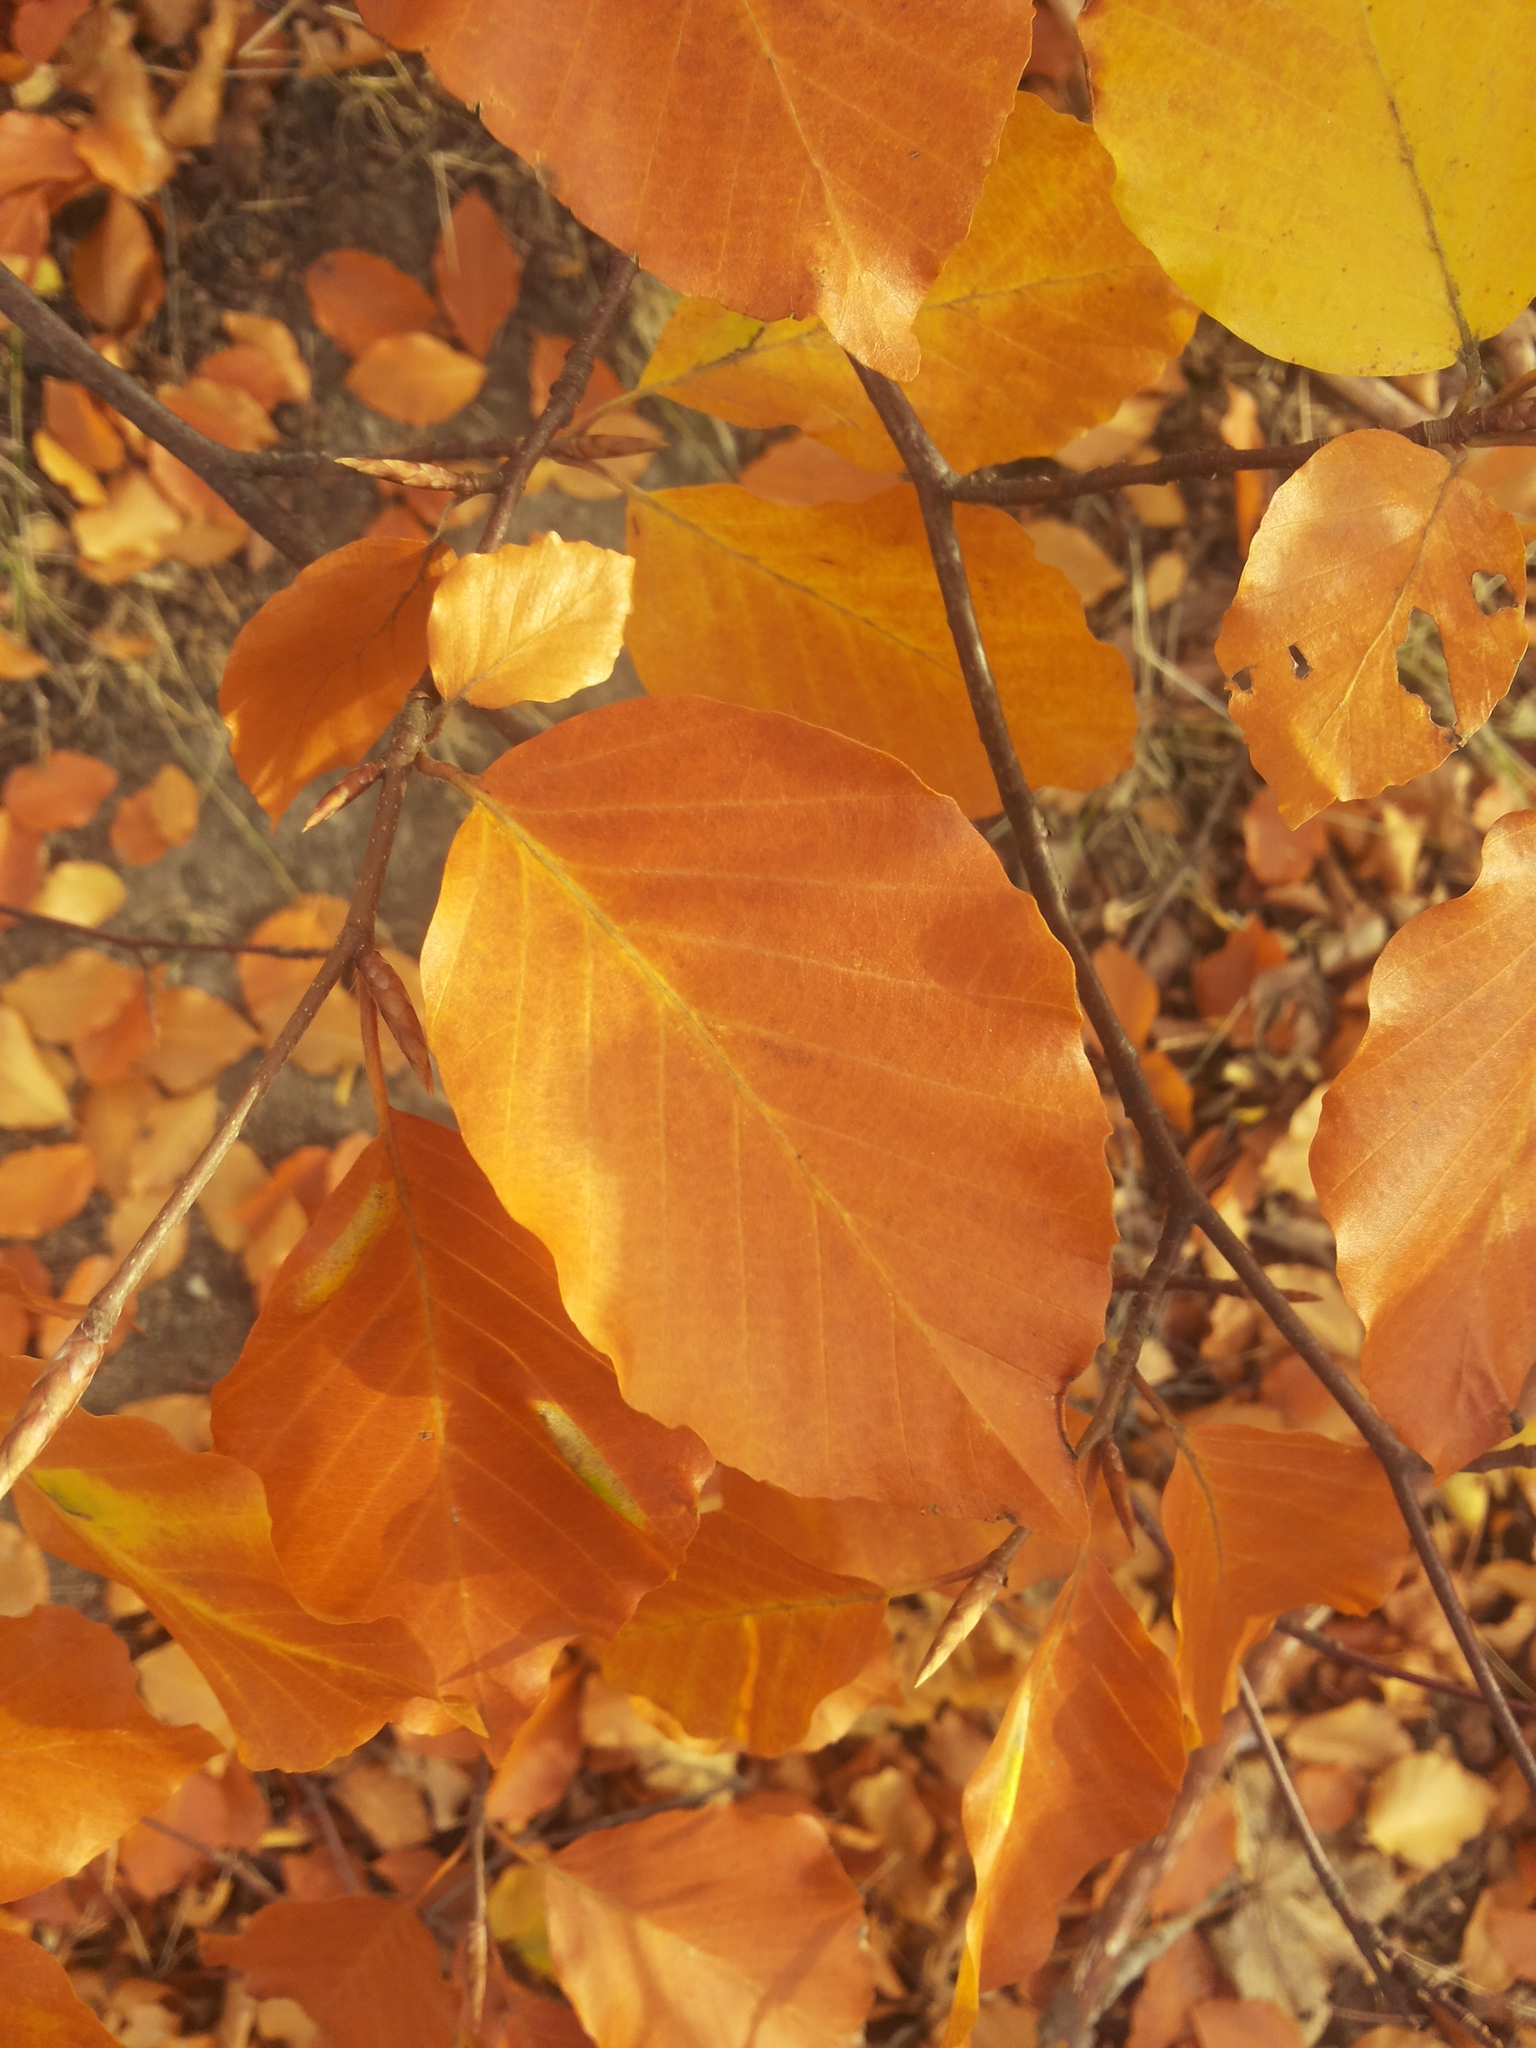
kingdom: Plantae
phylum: Tracheophyta
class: Magnoliopsida
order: Fagales
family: Fagaceae
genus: Fagus
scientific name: Fagus sylvatica
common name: Beech
